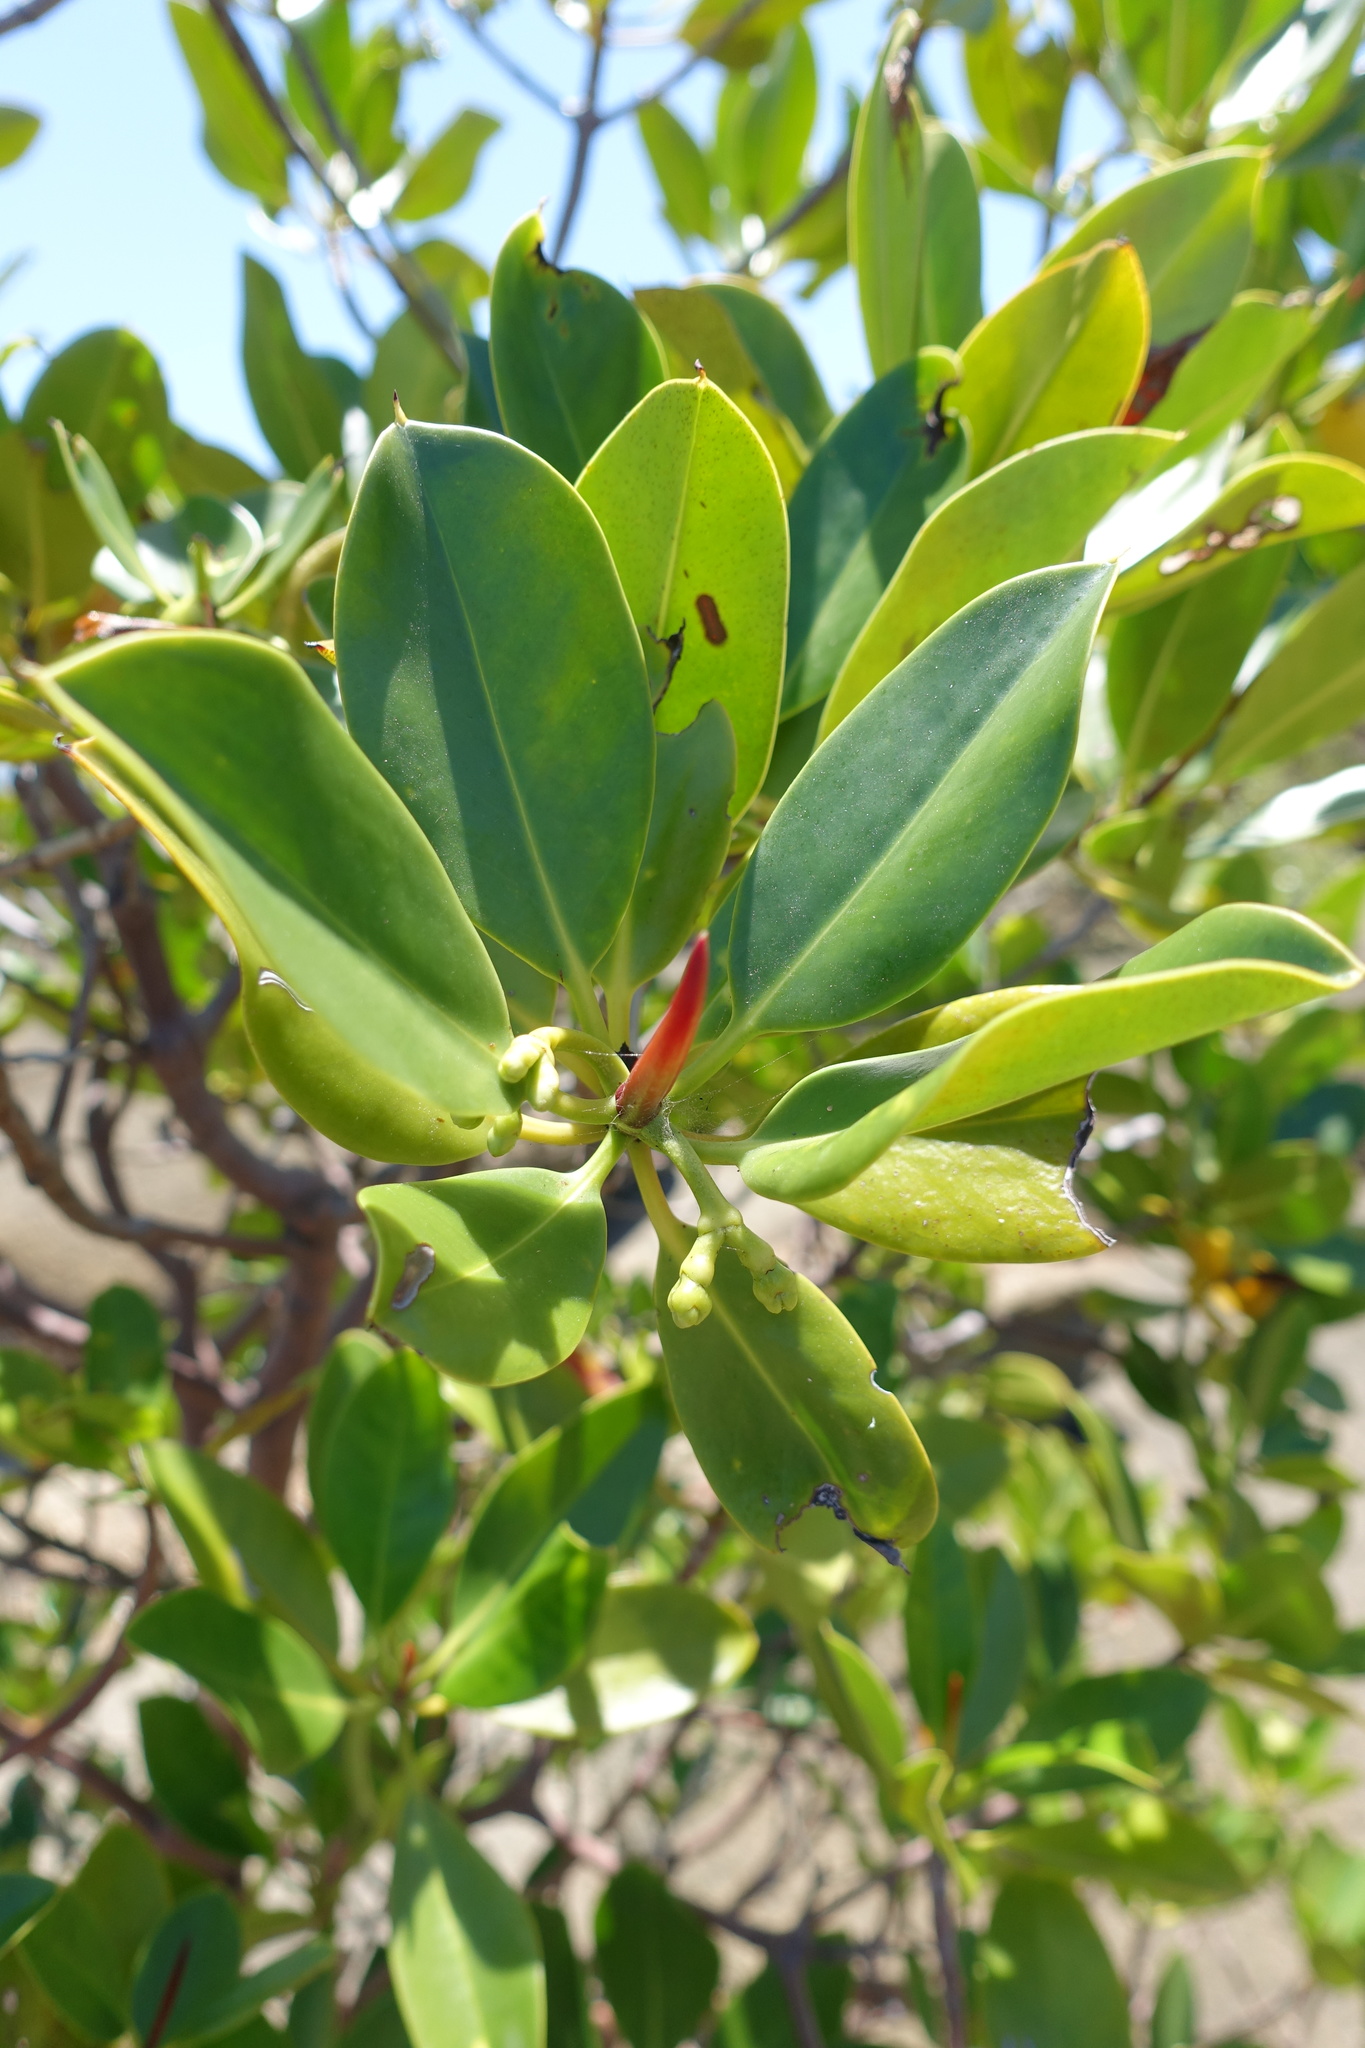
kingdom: Plantae
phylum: Tracheophyta
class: Magnoliopsida
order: Malpighiales
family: Rhizophoraceae
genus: Rhizophora
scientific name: Rhizophora stylosa
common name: Red mangrove
